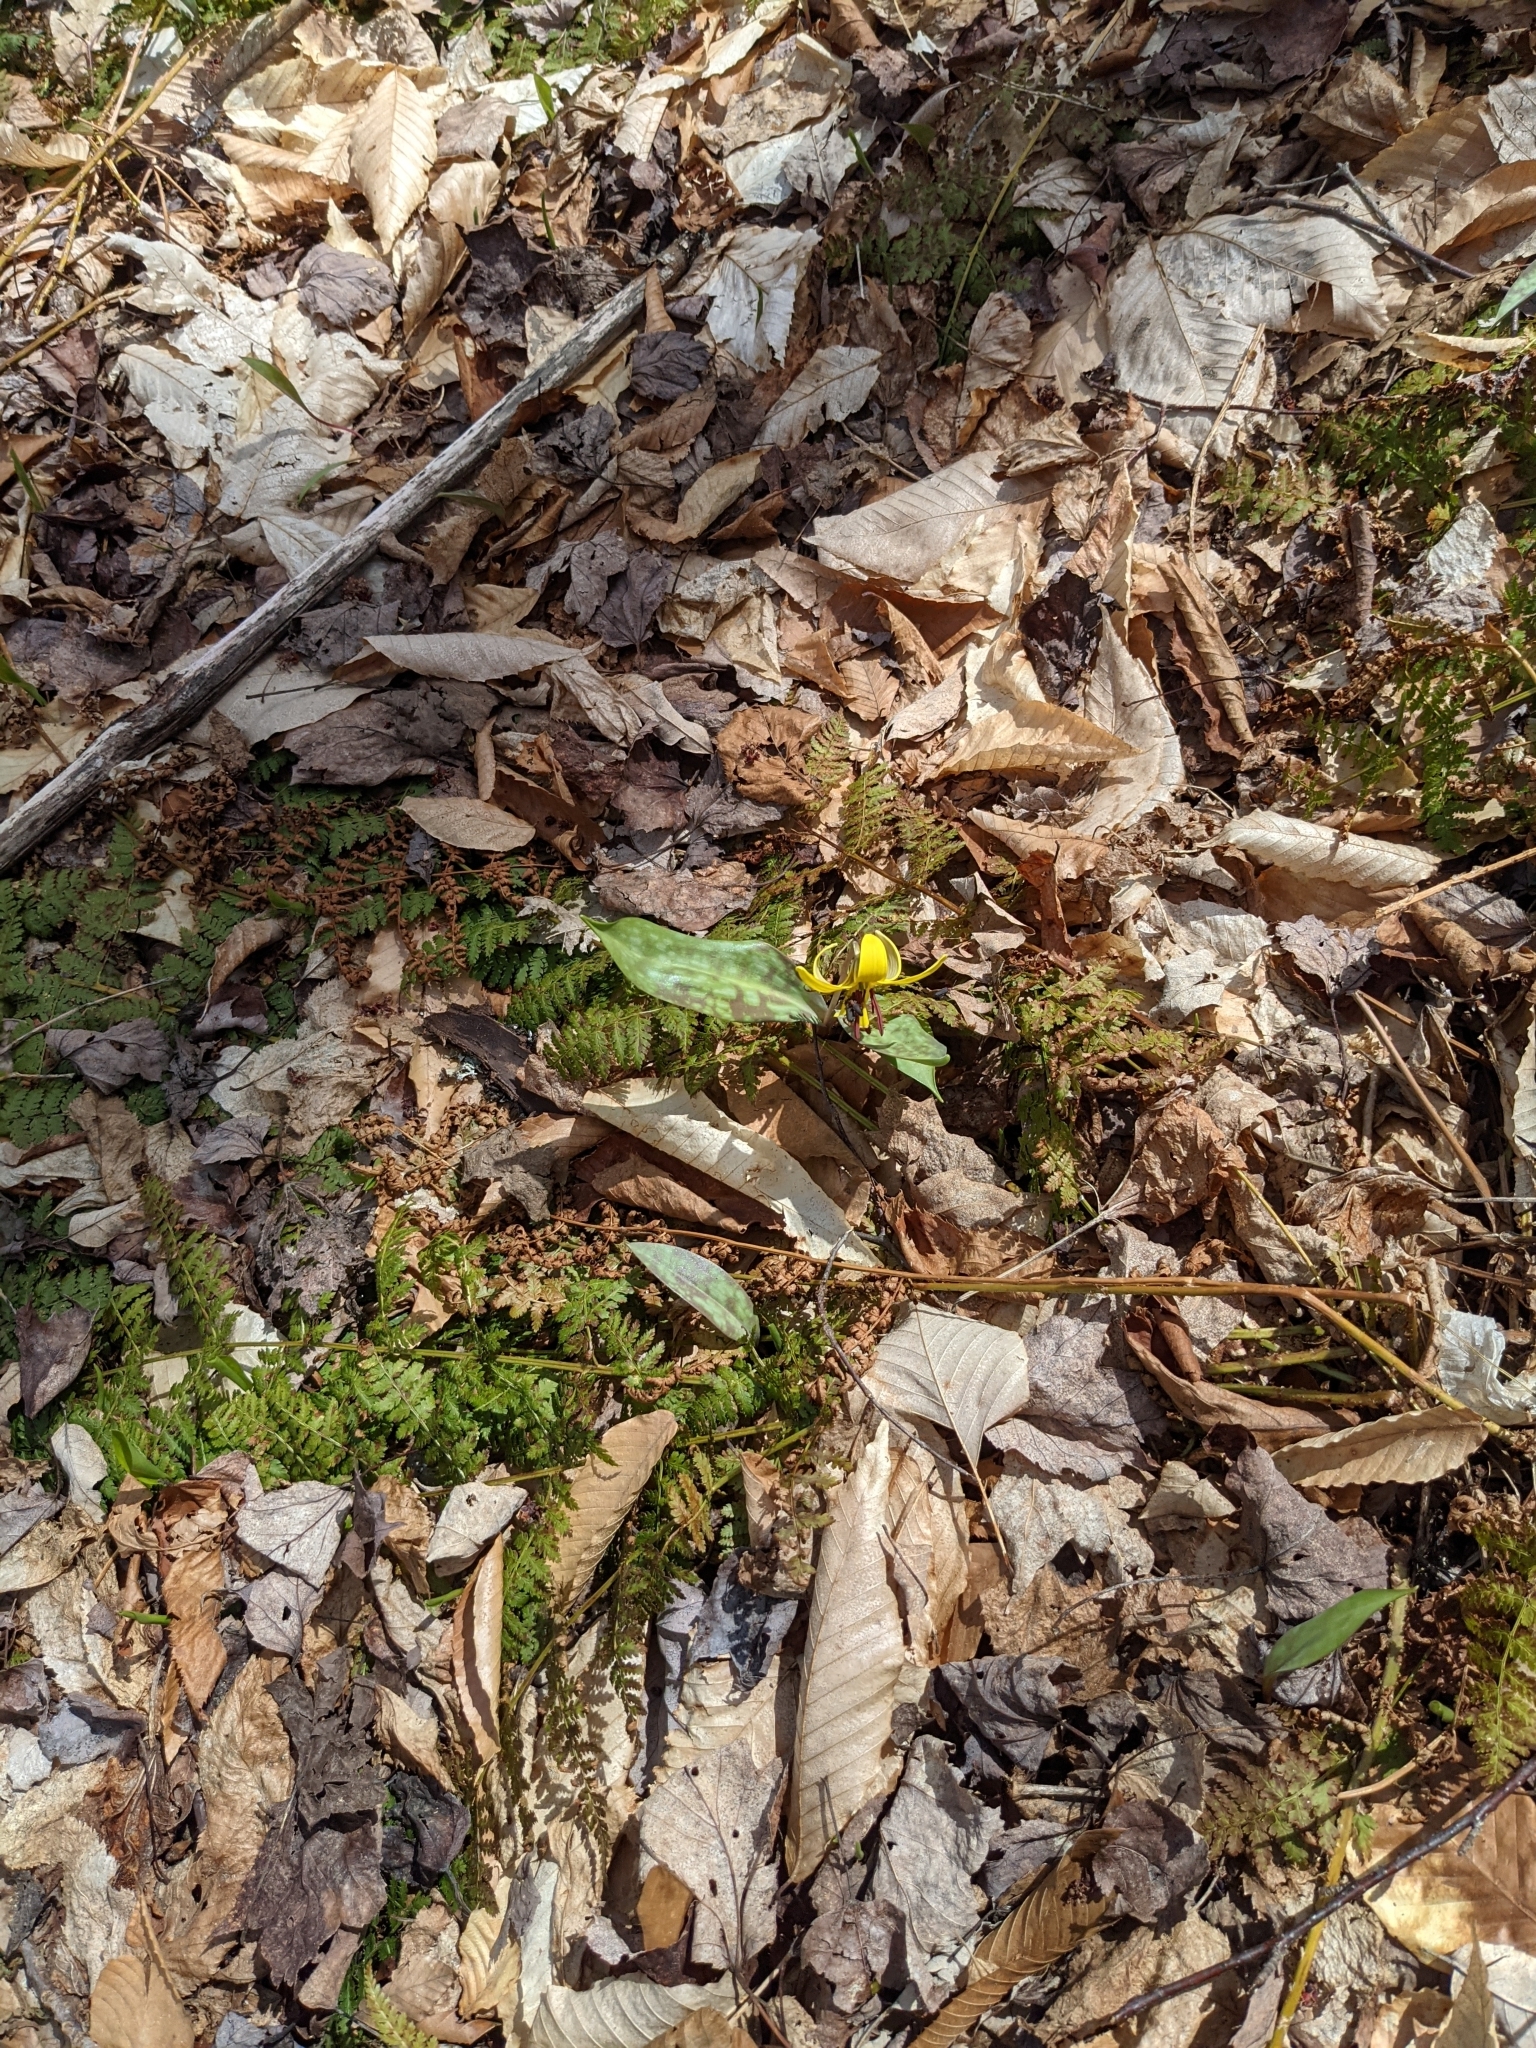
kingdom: Plantae
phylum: Tracheophyta
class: Liliopsida
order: Liliales
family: Liliaceae
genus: Erythronium
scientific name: Erythronium americanum
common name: Yellow adder's-tongue
